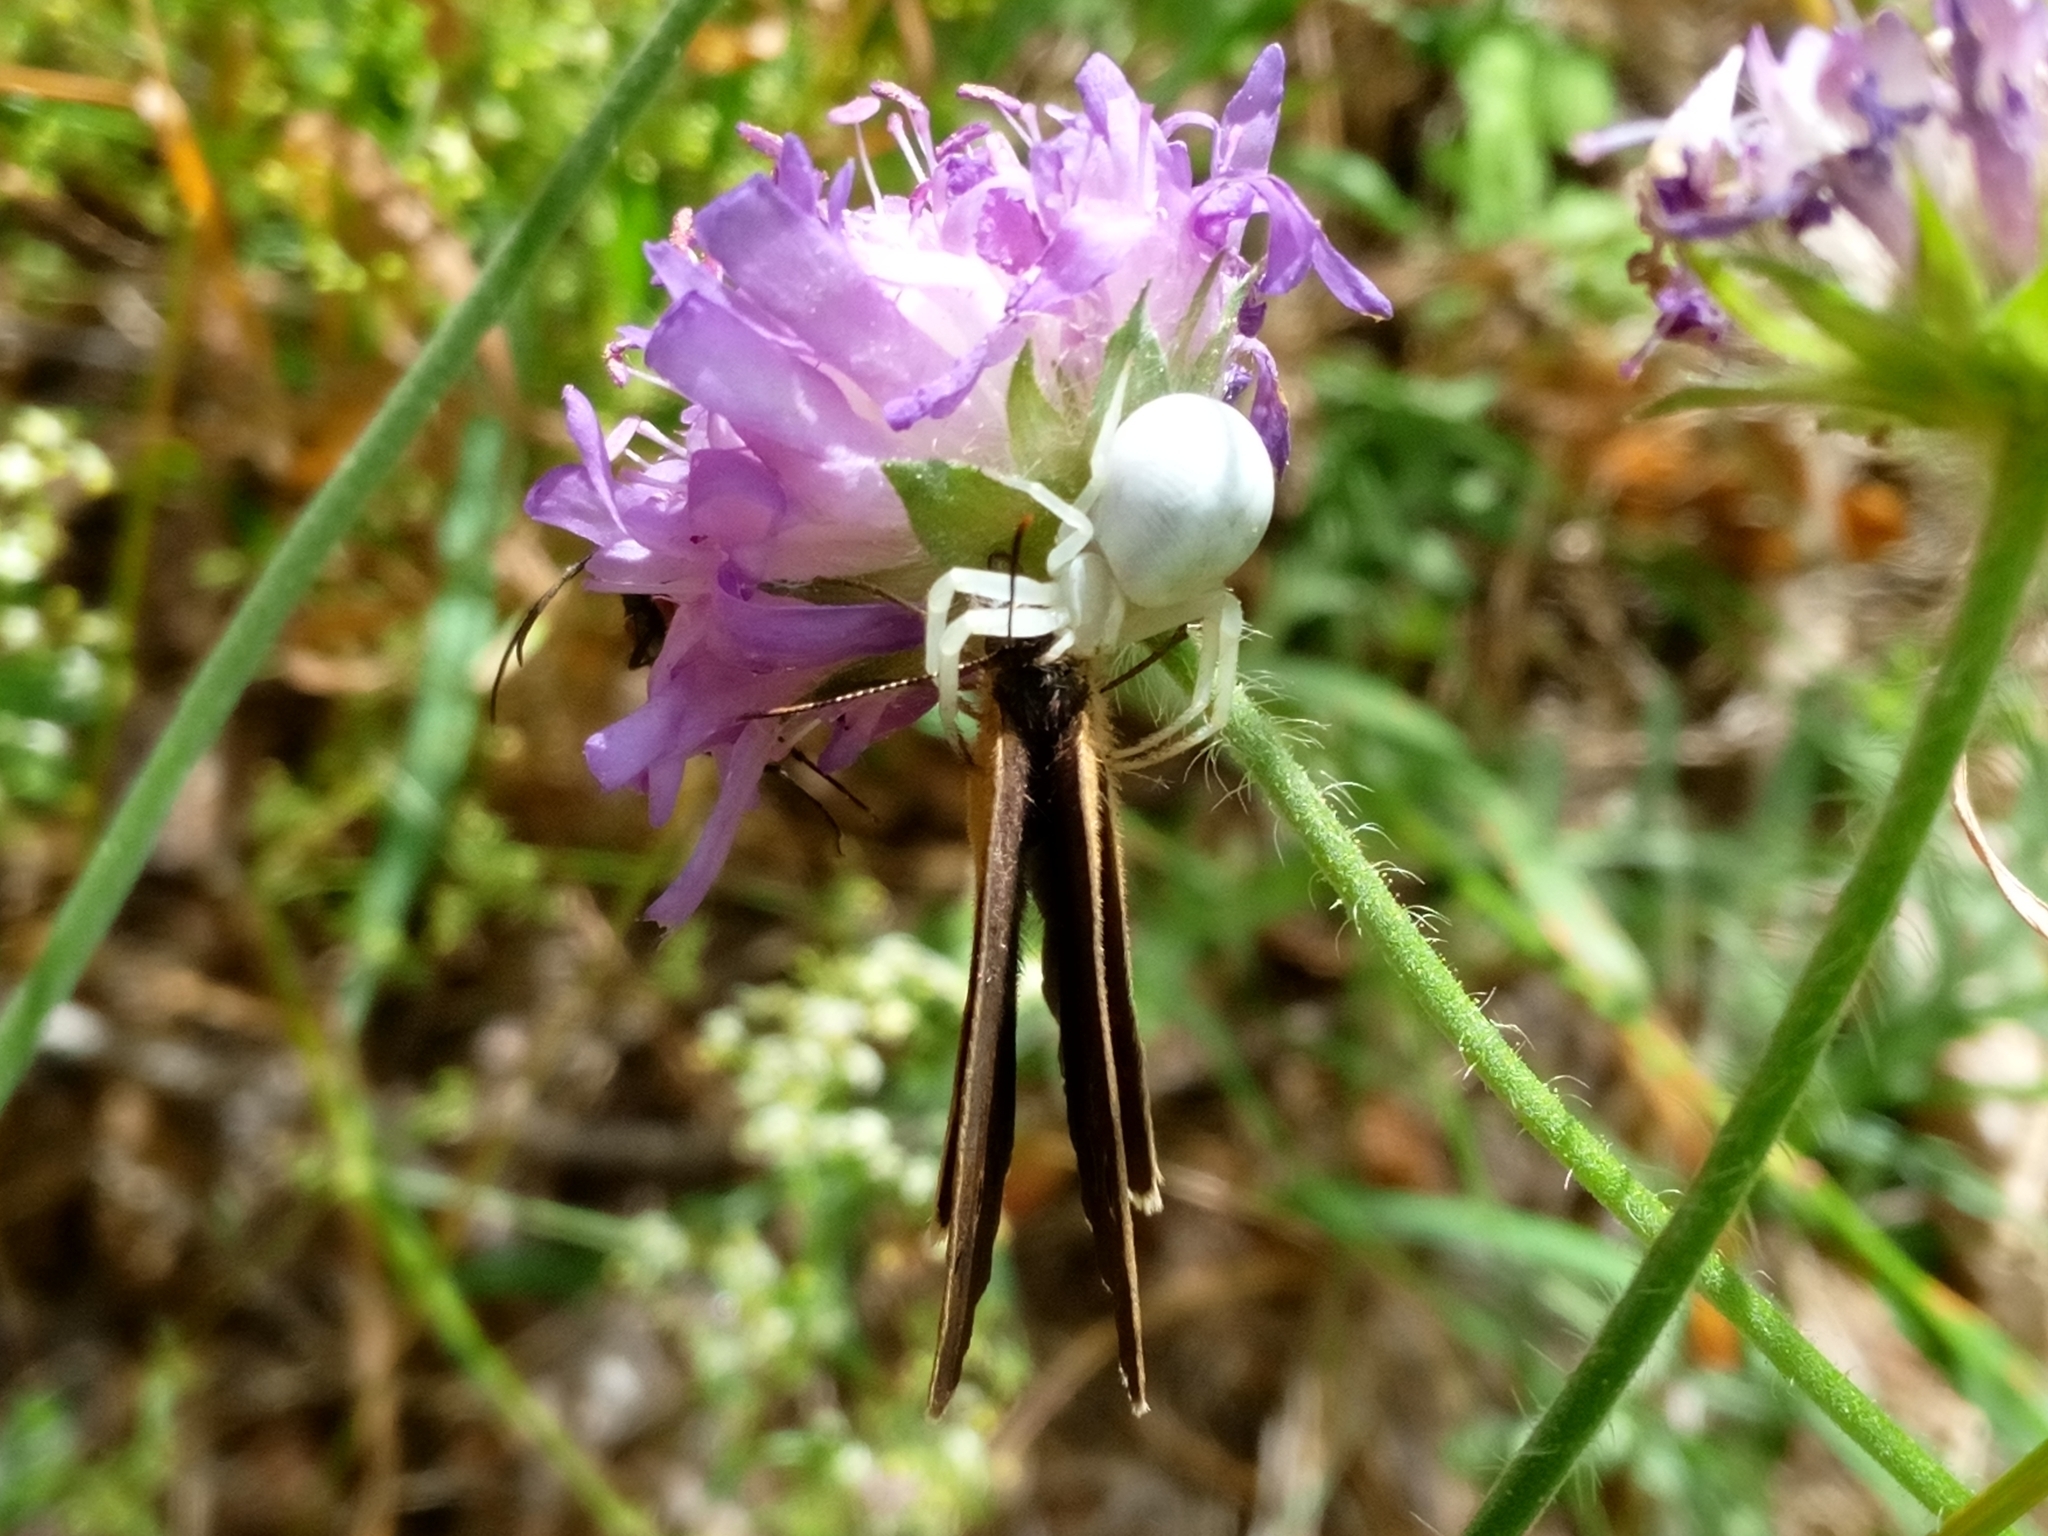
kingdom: Animalia
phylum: Arthropoda
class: Arachnida
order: Araneae
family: Thomisidae
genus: Misumena
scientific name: Misumena vatia
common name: Goldenrod crab spider
